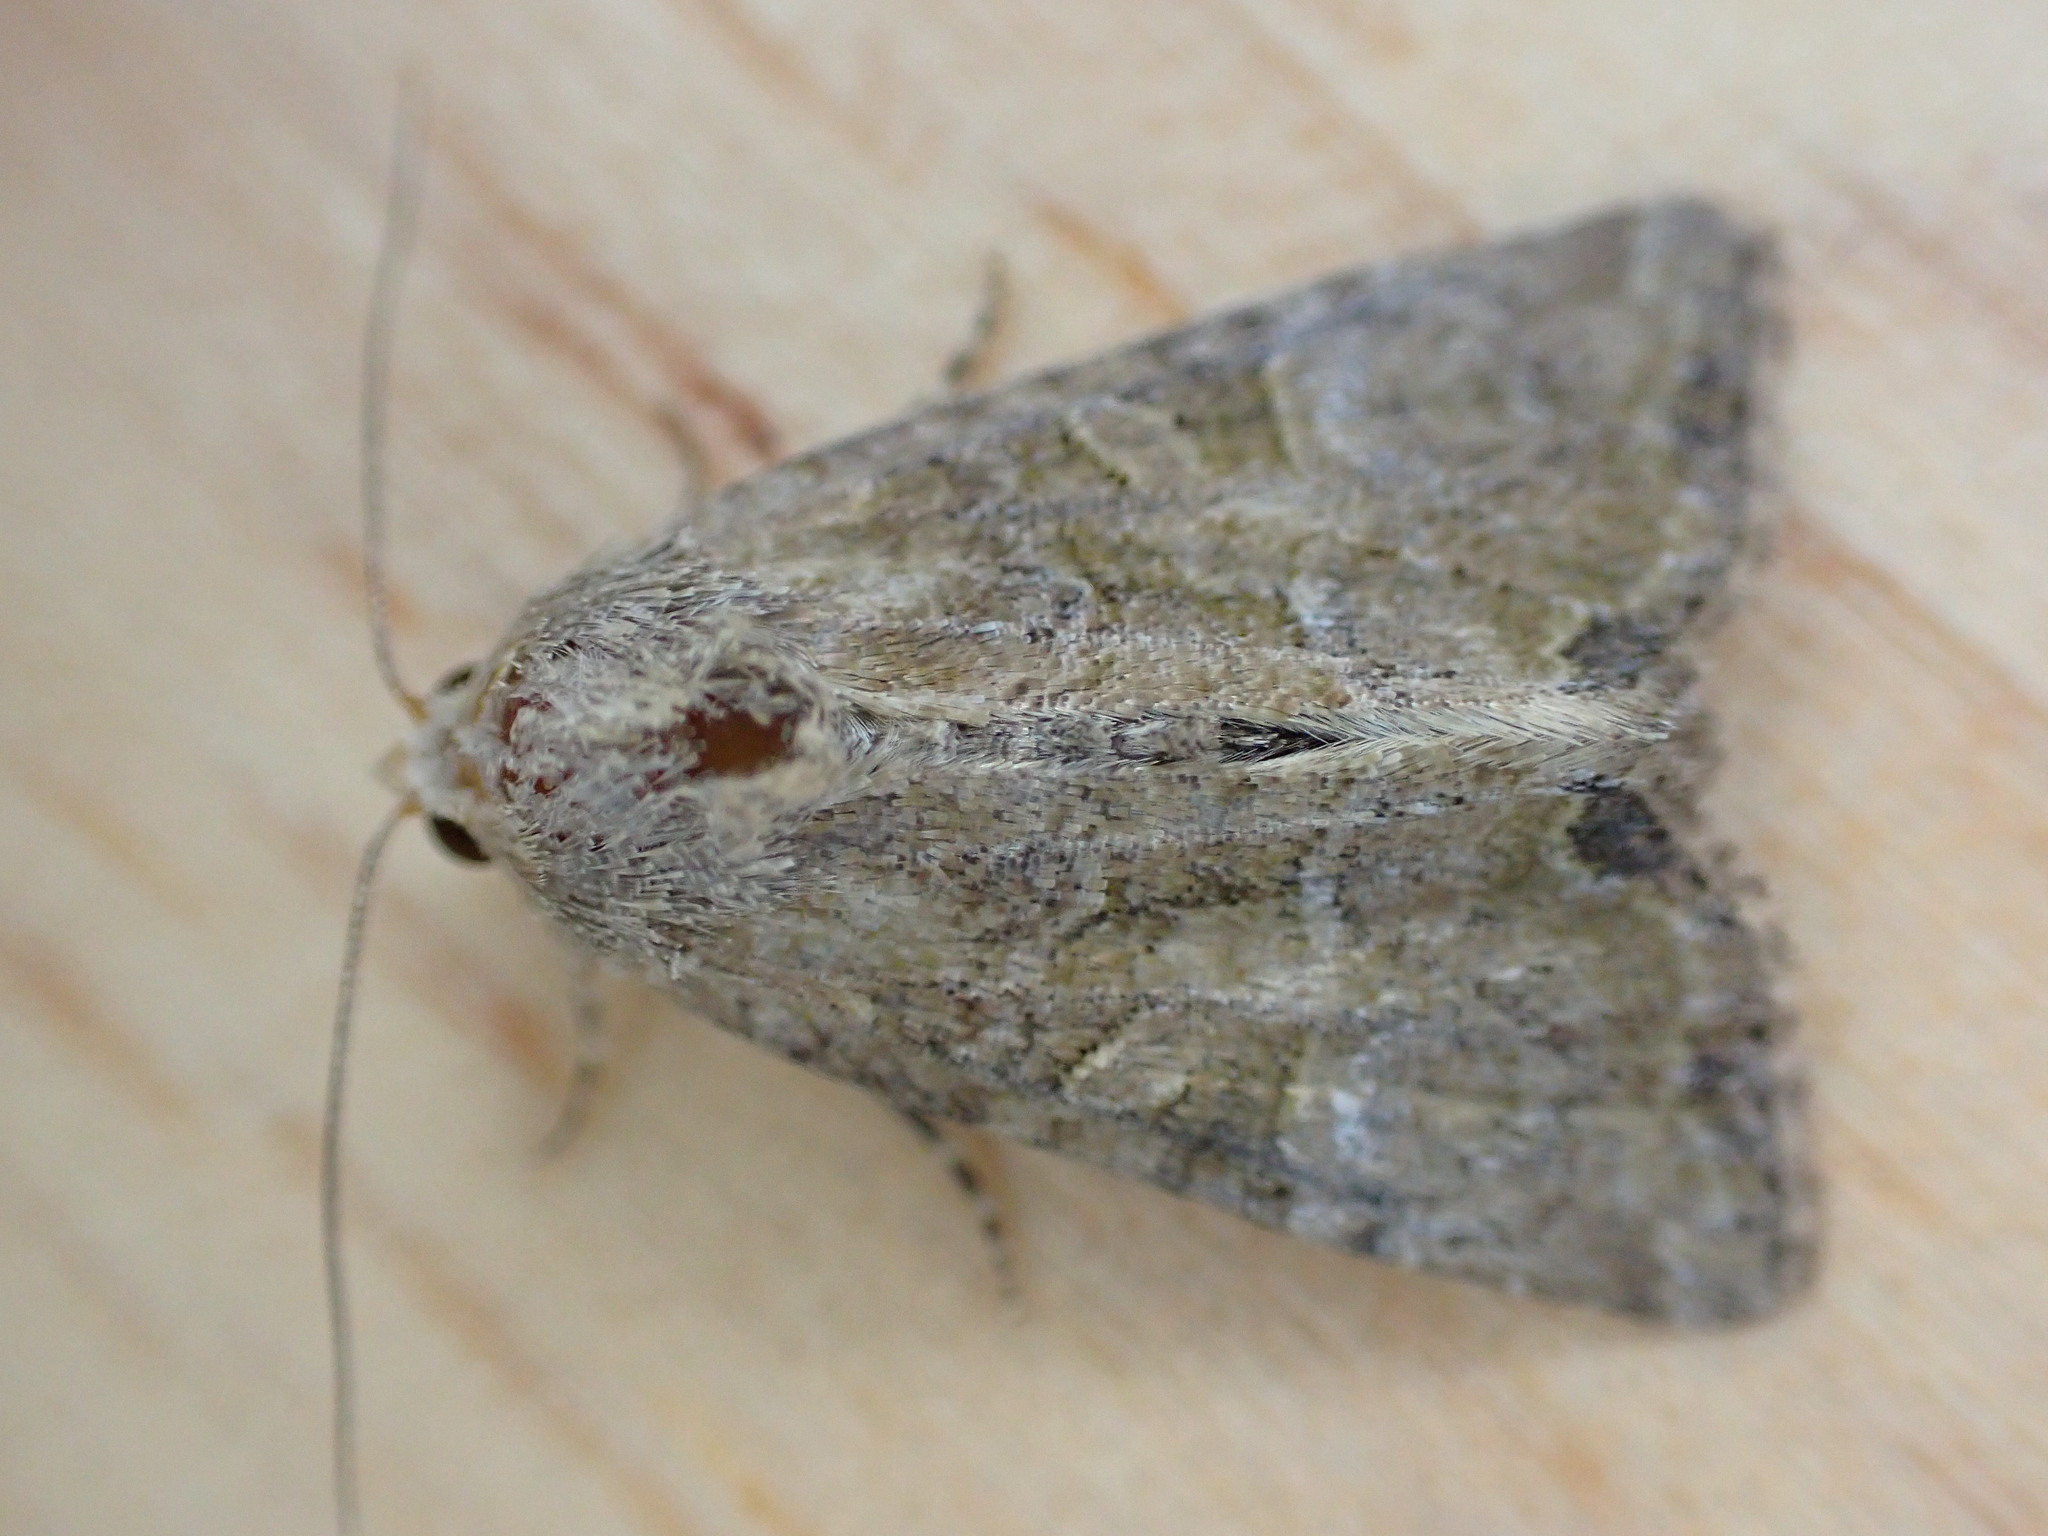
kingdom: Animalia
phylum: Arthropoda
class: Insecta
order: Lepidoptera
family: Noctuidae
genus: Mesoligia
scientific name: Mesoligia furuncula
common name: Cloaked minor
